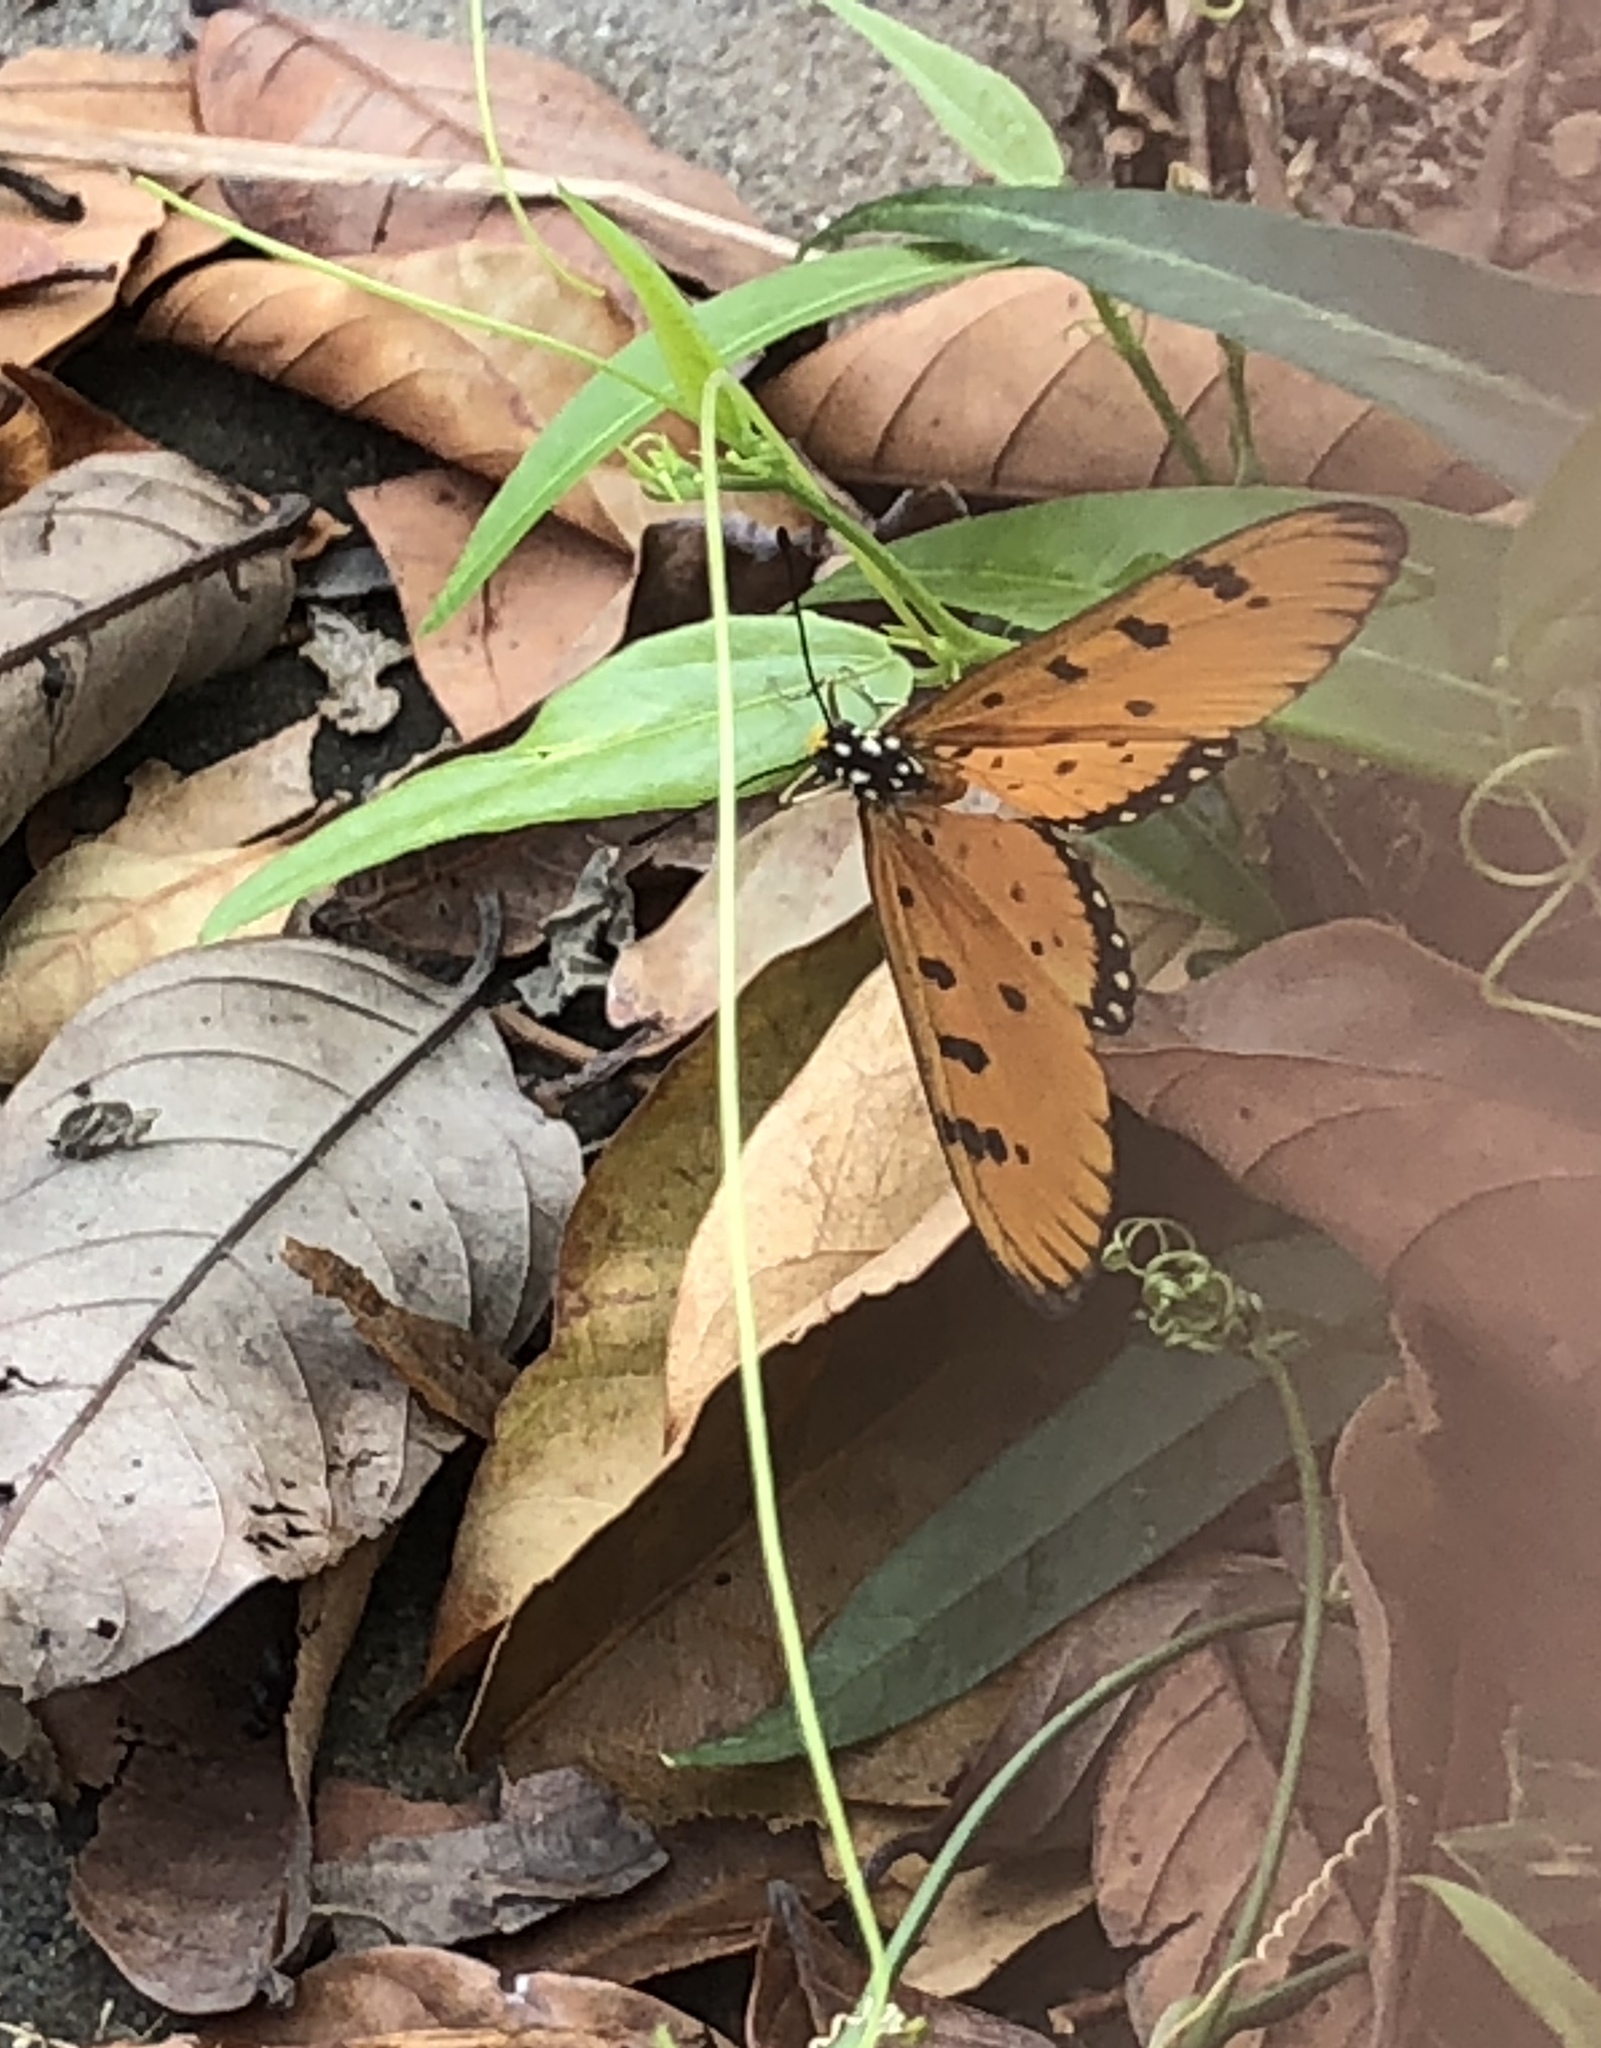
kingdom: Animalia
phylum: Arthropoda
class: Insecta
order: Lepidoptera
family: Nymphalidae
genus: Acraea
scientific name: Acraea terpsicore
